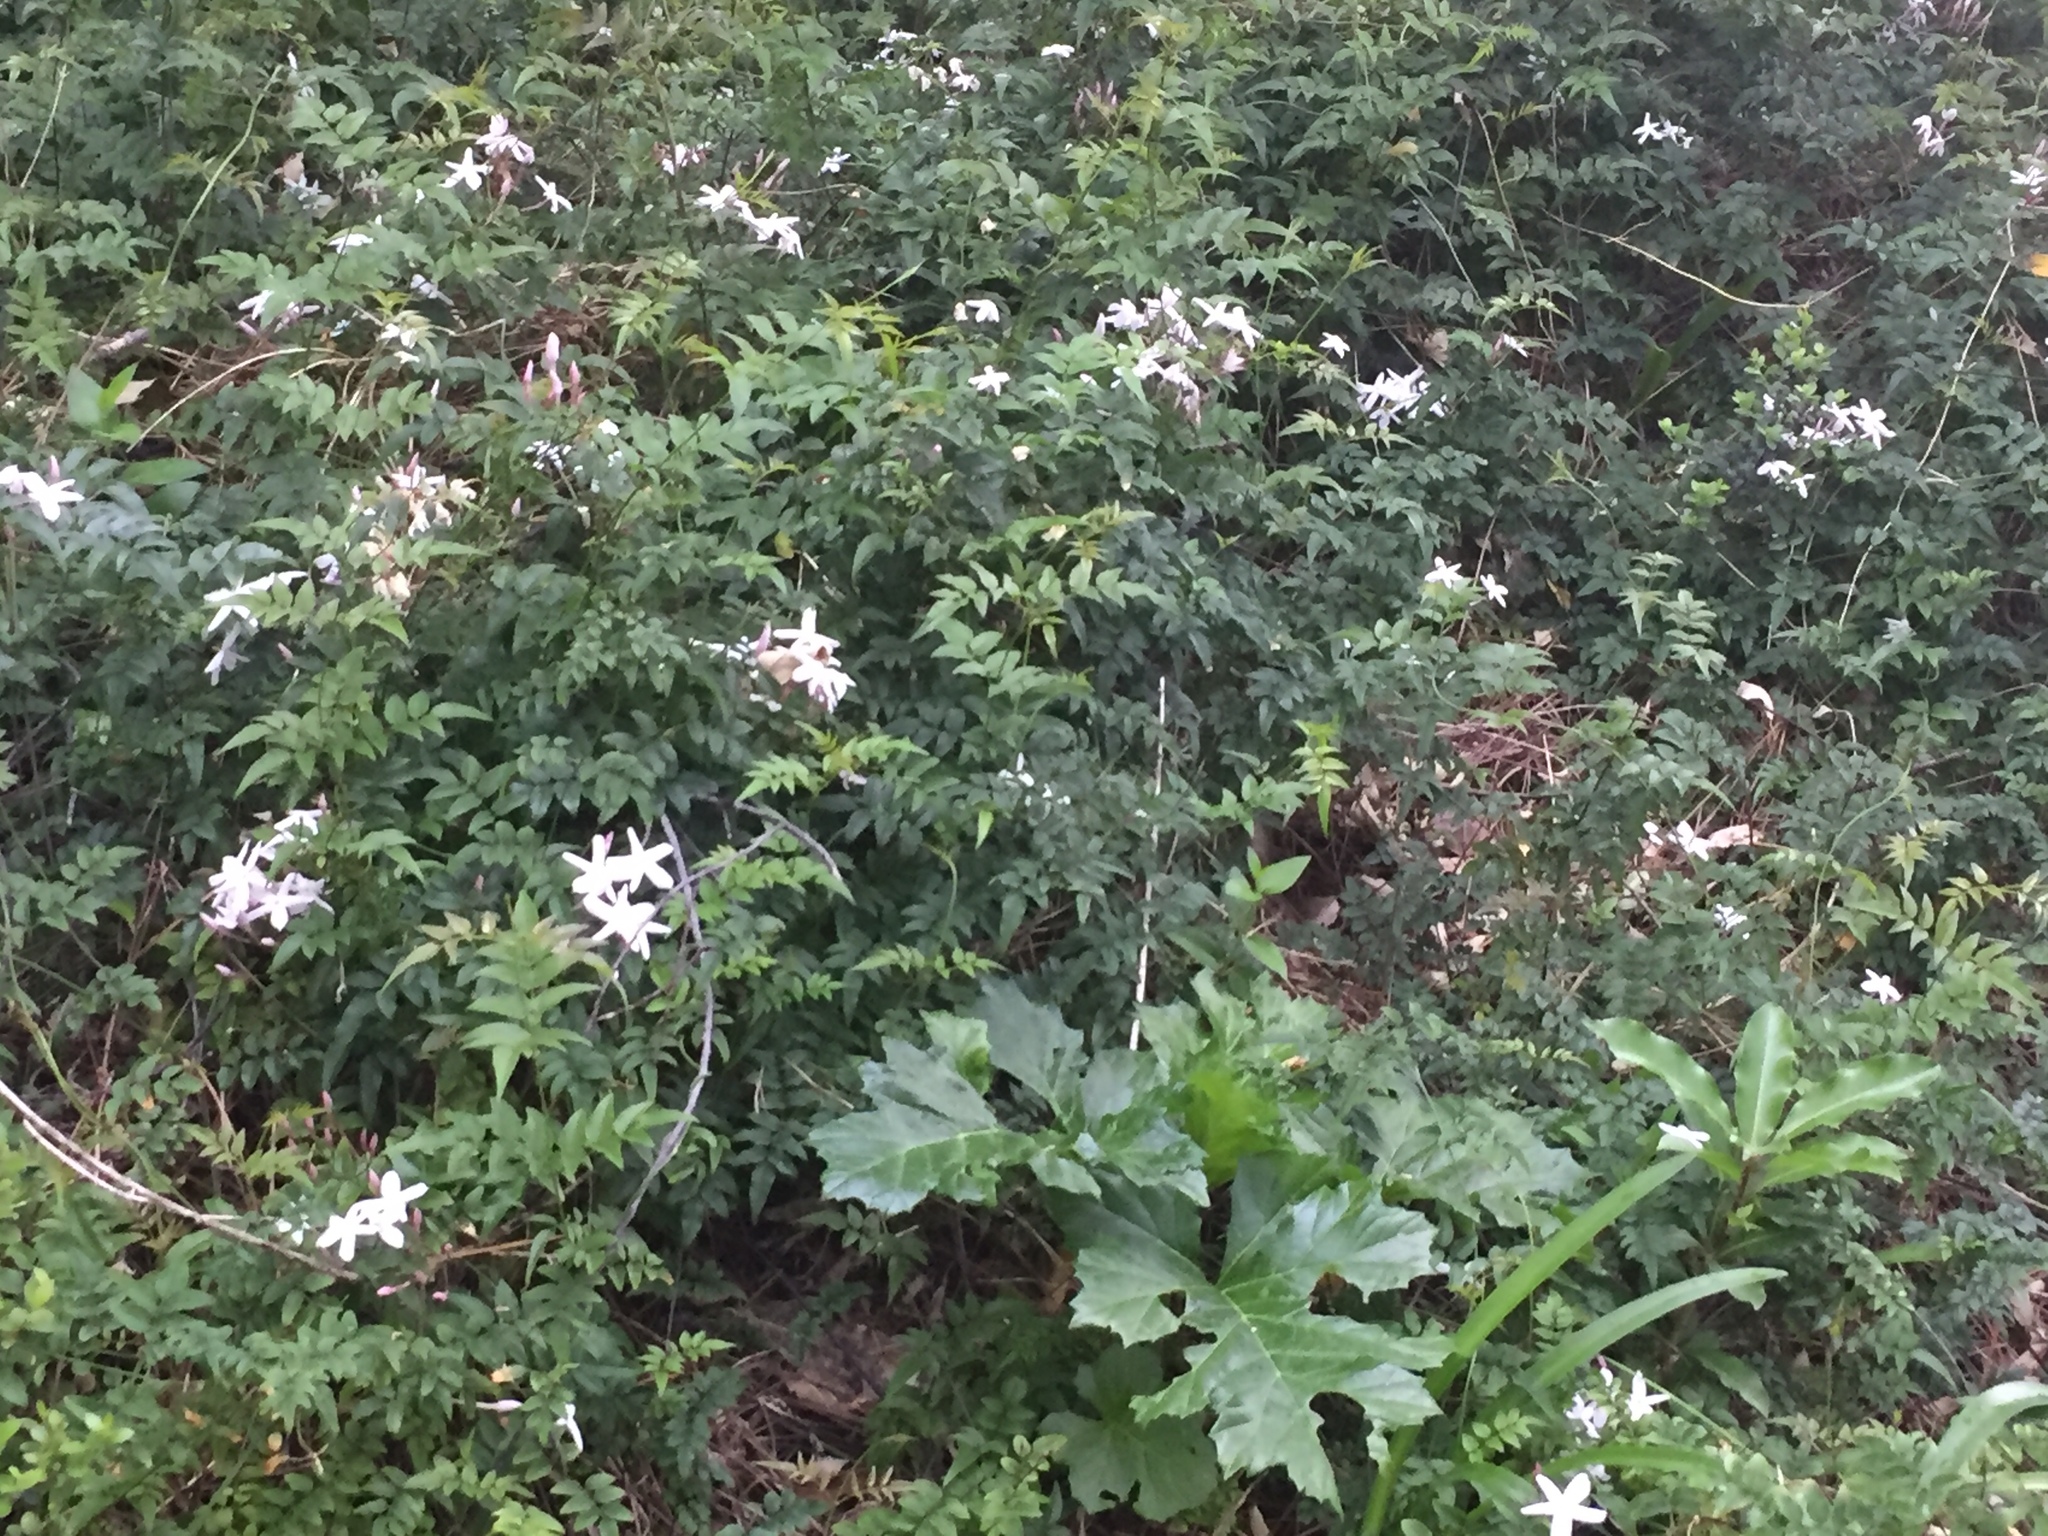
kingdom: Plantae
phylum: Tracheophyta
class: Magnoliopsida
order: Lamiales
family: Oleaceae
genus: Jasminum
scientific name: Jasminum polyanthum
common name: Pink jasmine
